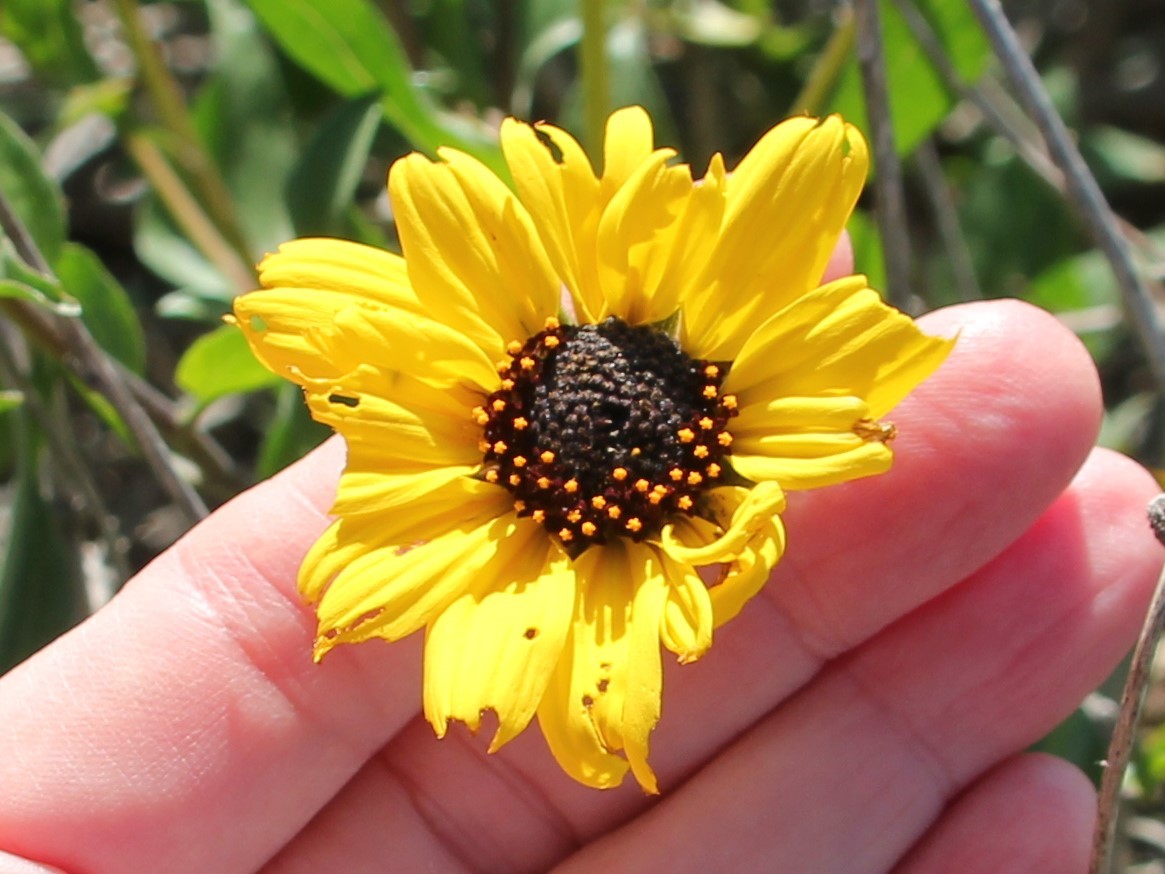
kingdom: Plantae
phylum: Tracheophyta
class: Magnoliopsida
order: Asterales
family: Asteraceae
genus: Encelia
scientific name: Encelia californica
